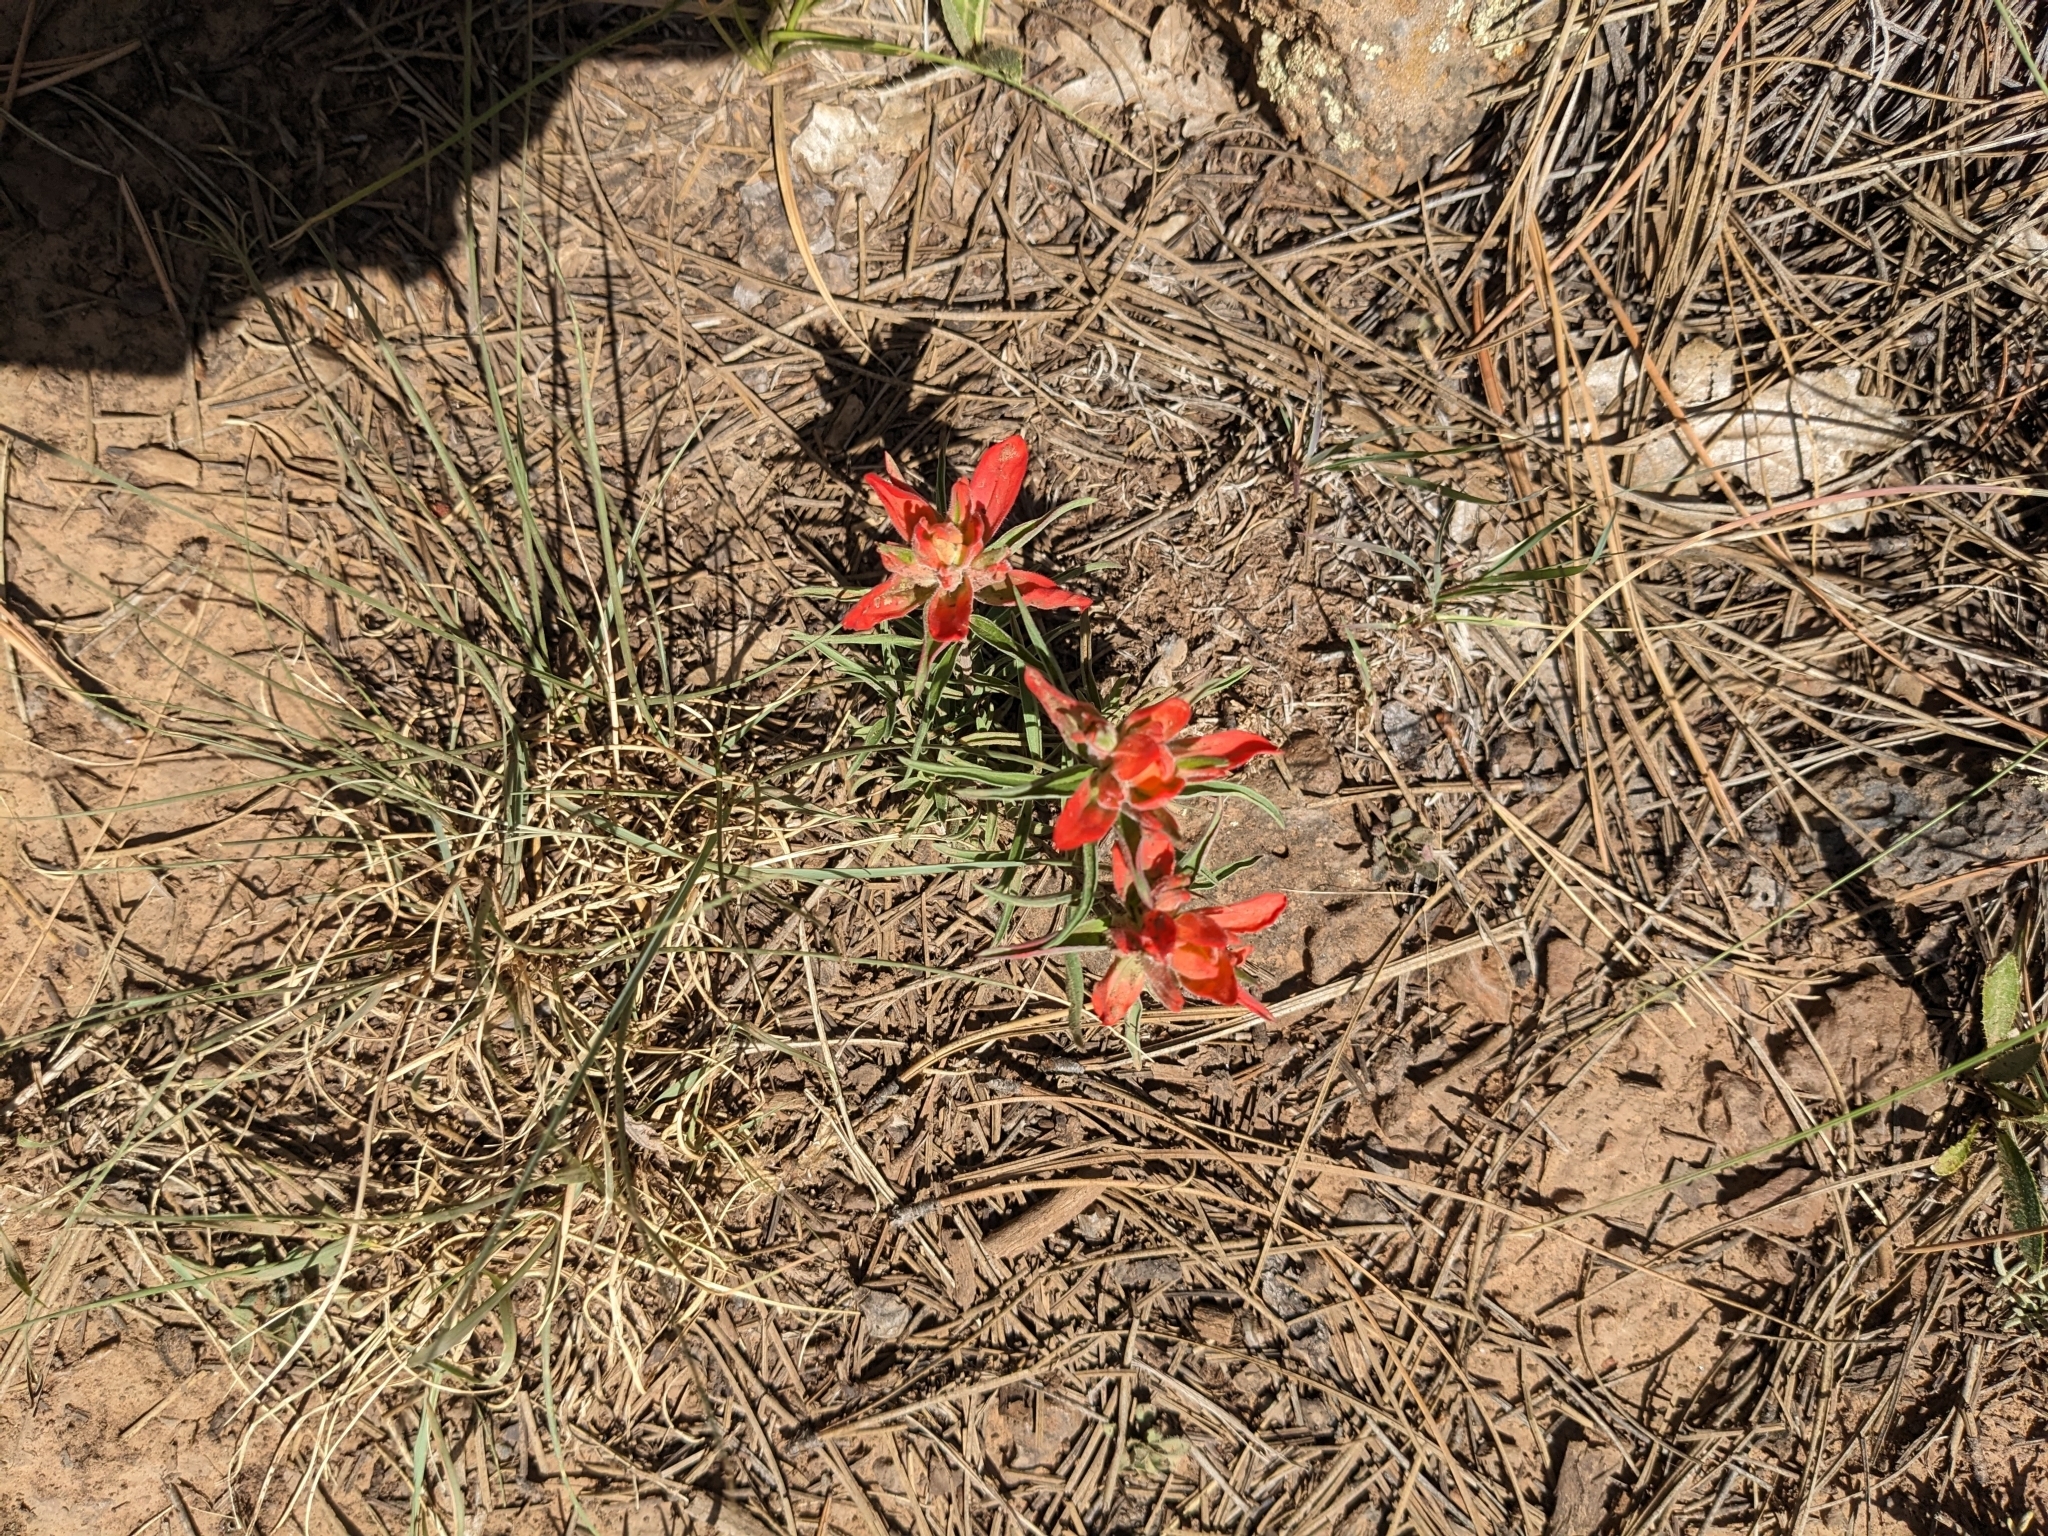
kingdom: Plantae
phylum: Tracheophyta
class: Magnoliopsida
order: Lamiales
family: Orobanchaceae
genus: Castilleja
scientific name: Castilleja integra
